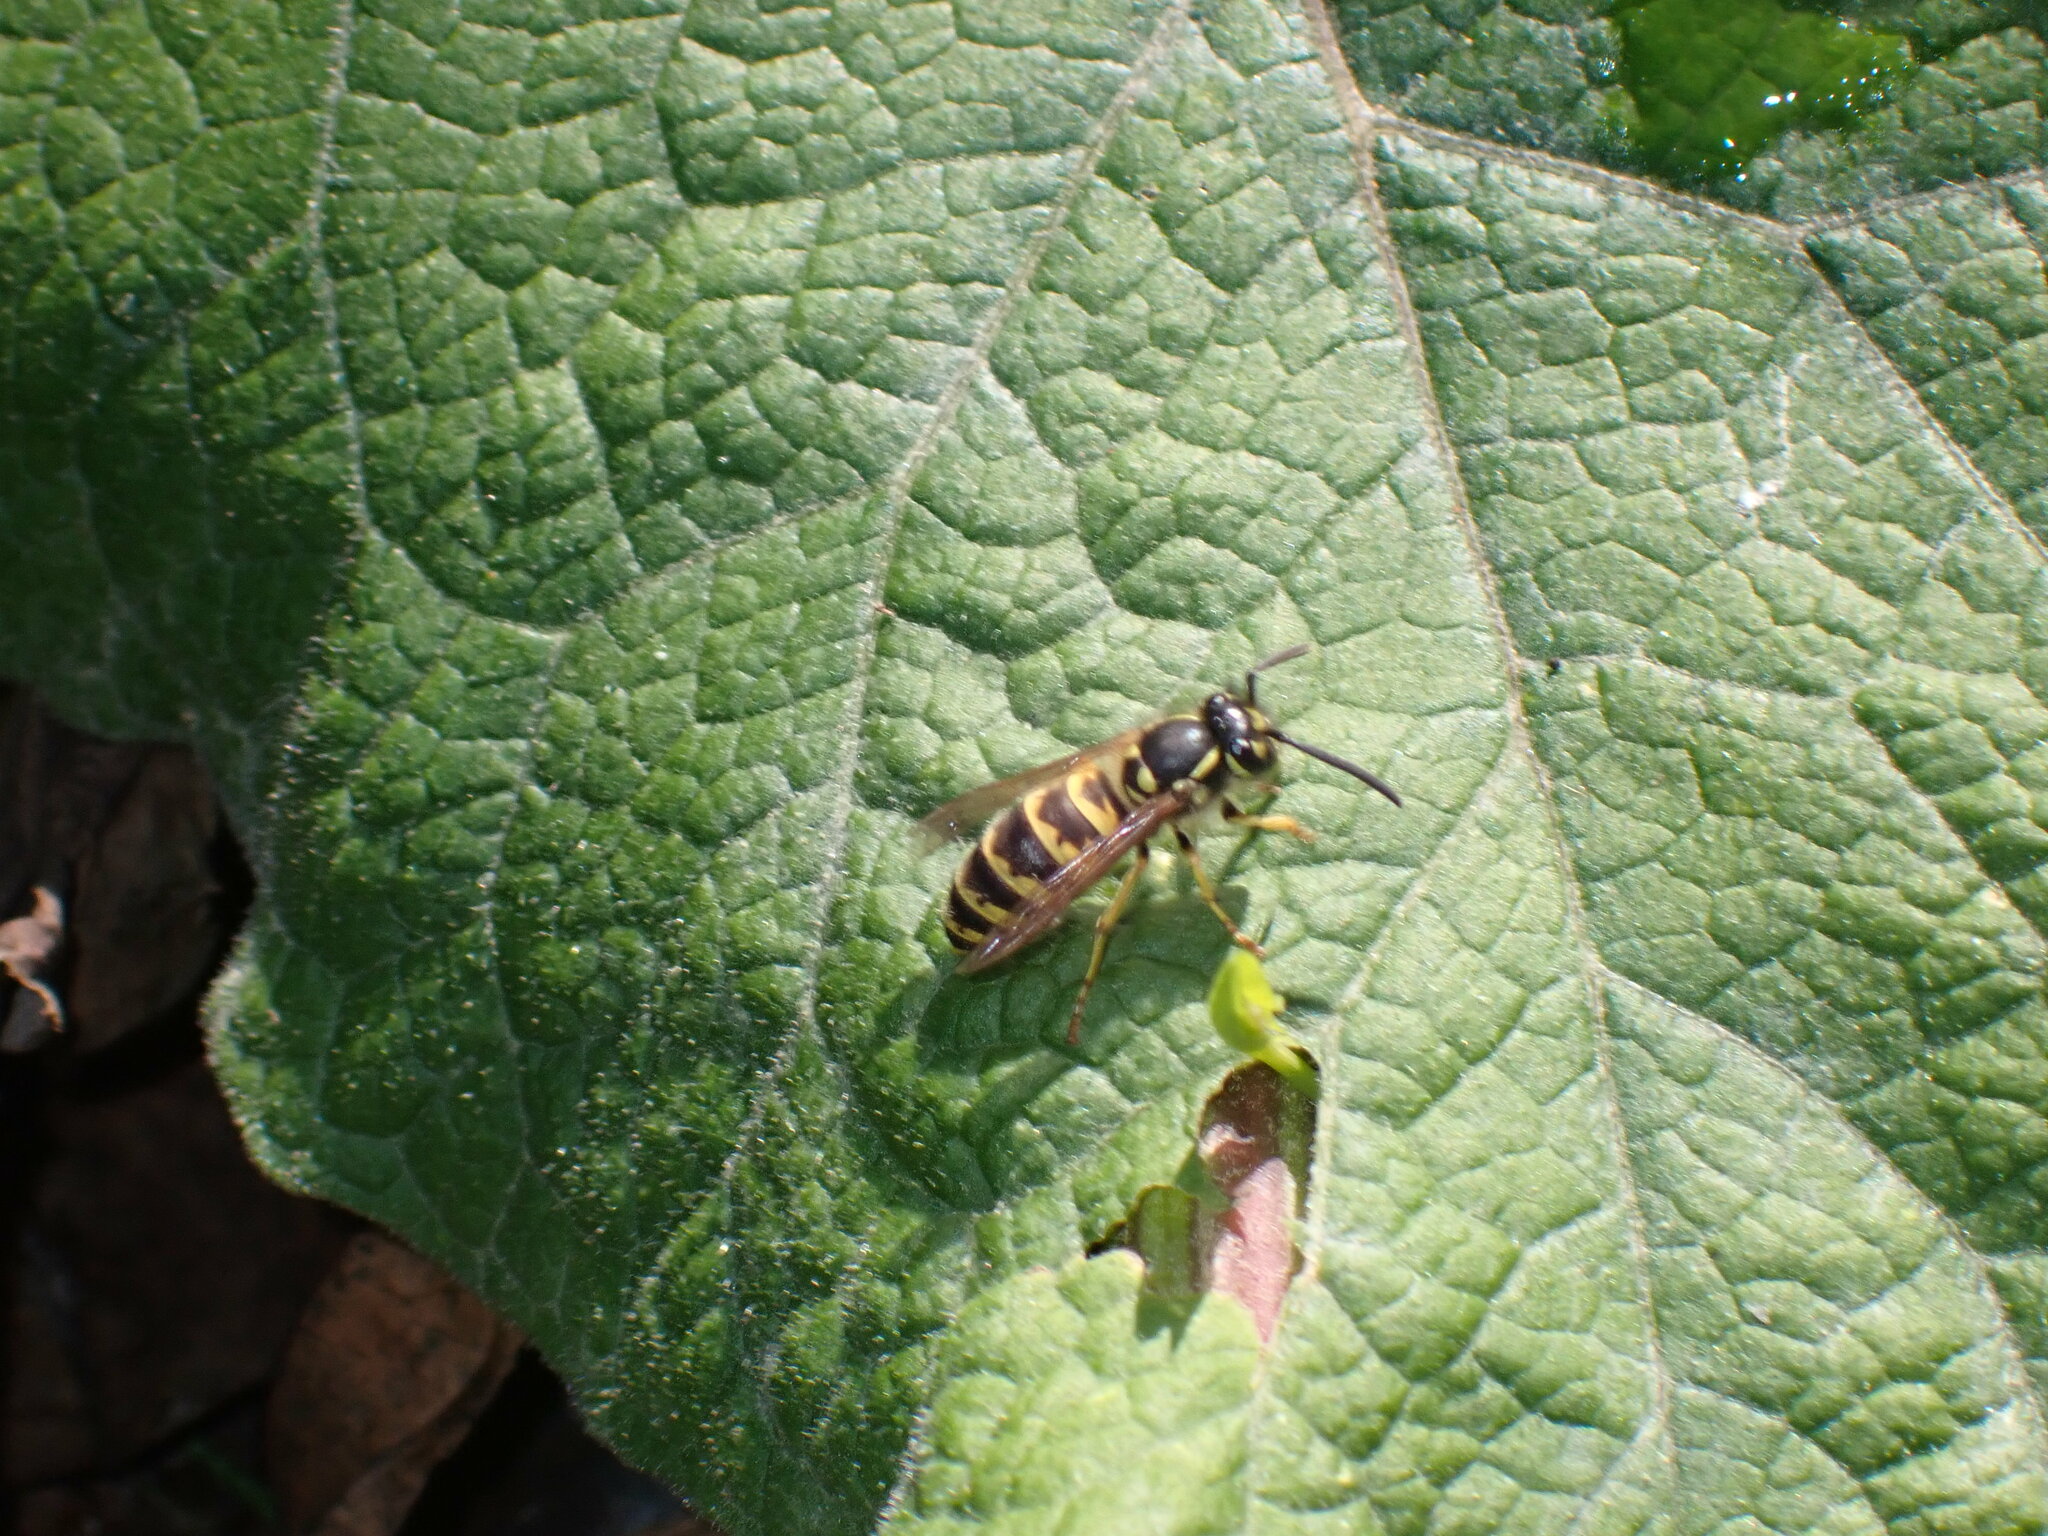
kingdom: Animalia
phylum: Arthropoda
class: Insecta
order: Hymenoptera
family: Vespidae
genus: Vespula
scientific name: Vespula vulgaris
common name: Common wasp
